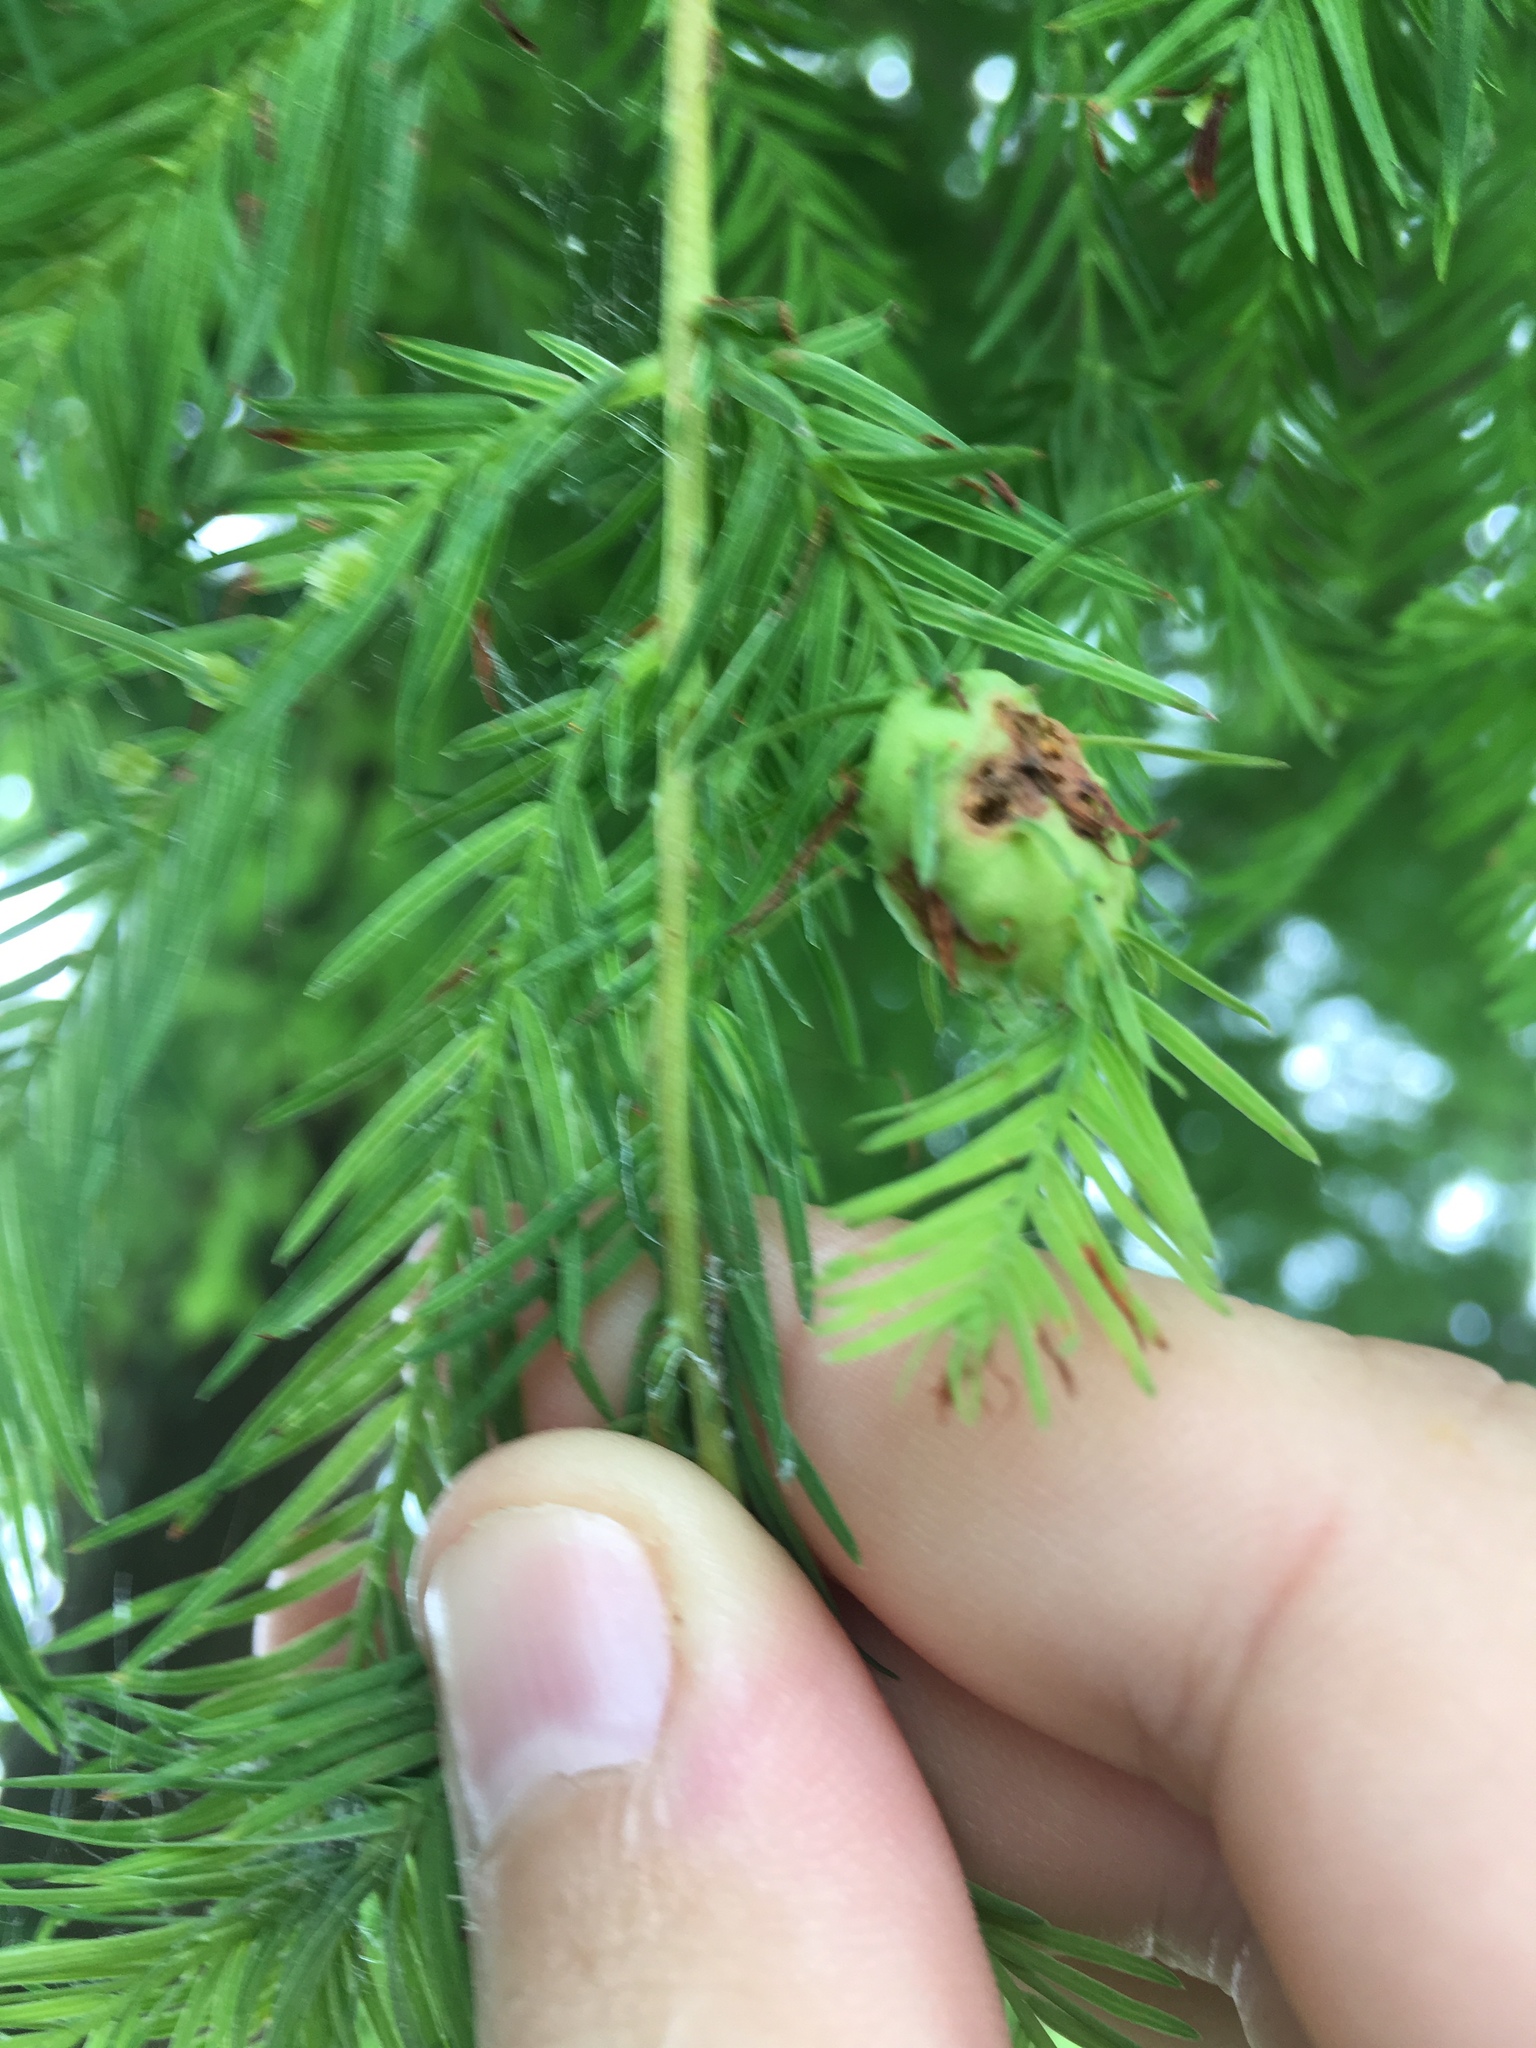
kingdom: Animalia
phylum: Arthropoda
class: Insecta
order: Diptera
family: Cecidomyiidae
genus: Taxodiomyia
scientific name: Taxodiomyia cupressiananassa
